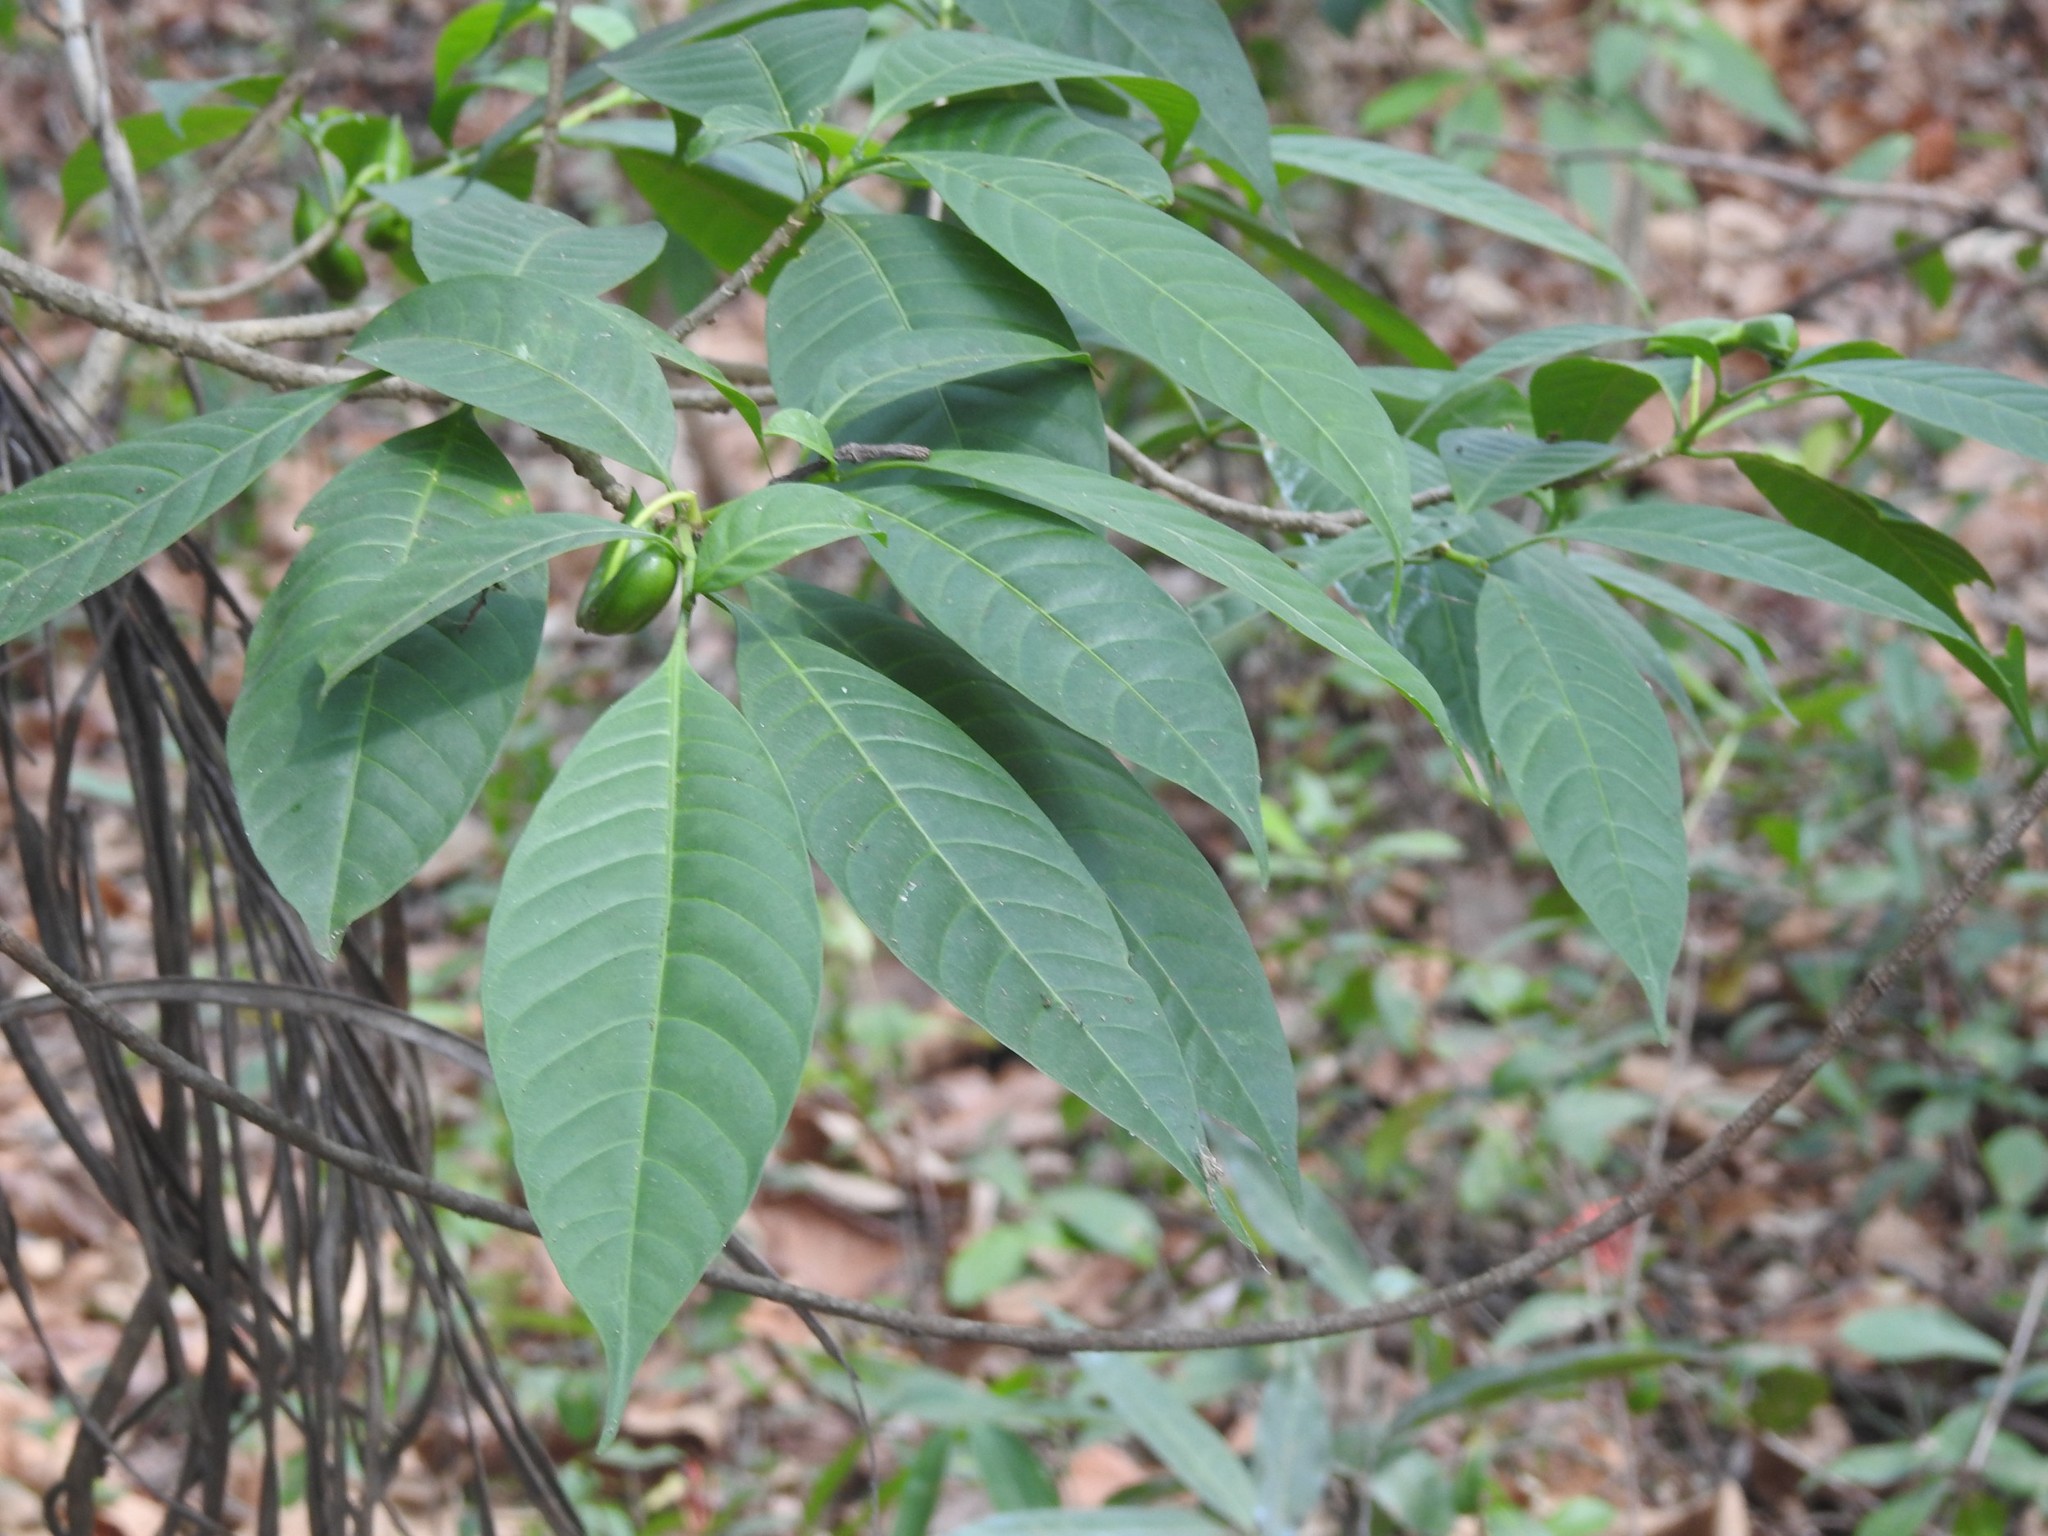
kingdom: Plantae
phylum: Tracheophyta
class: Magnoliopsida
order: Gentianales
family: Apocynaceae
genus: Tabernaemontana
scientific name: Tabernaemontana alternifolia
